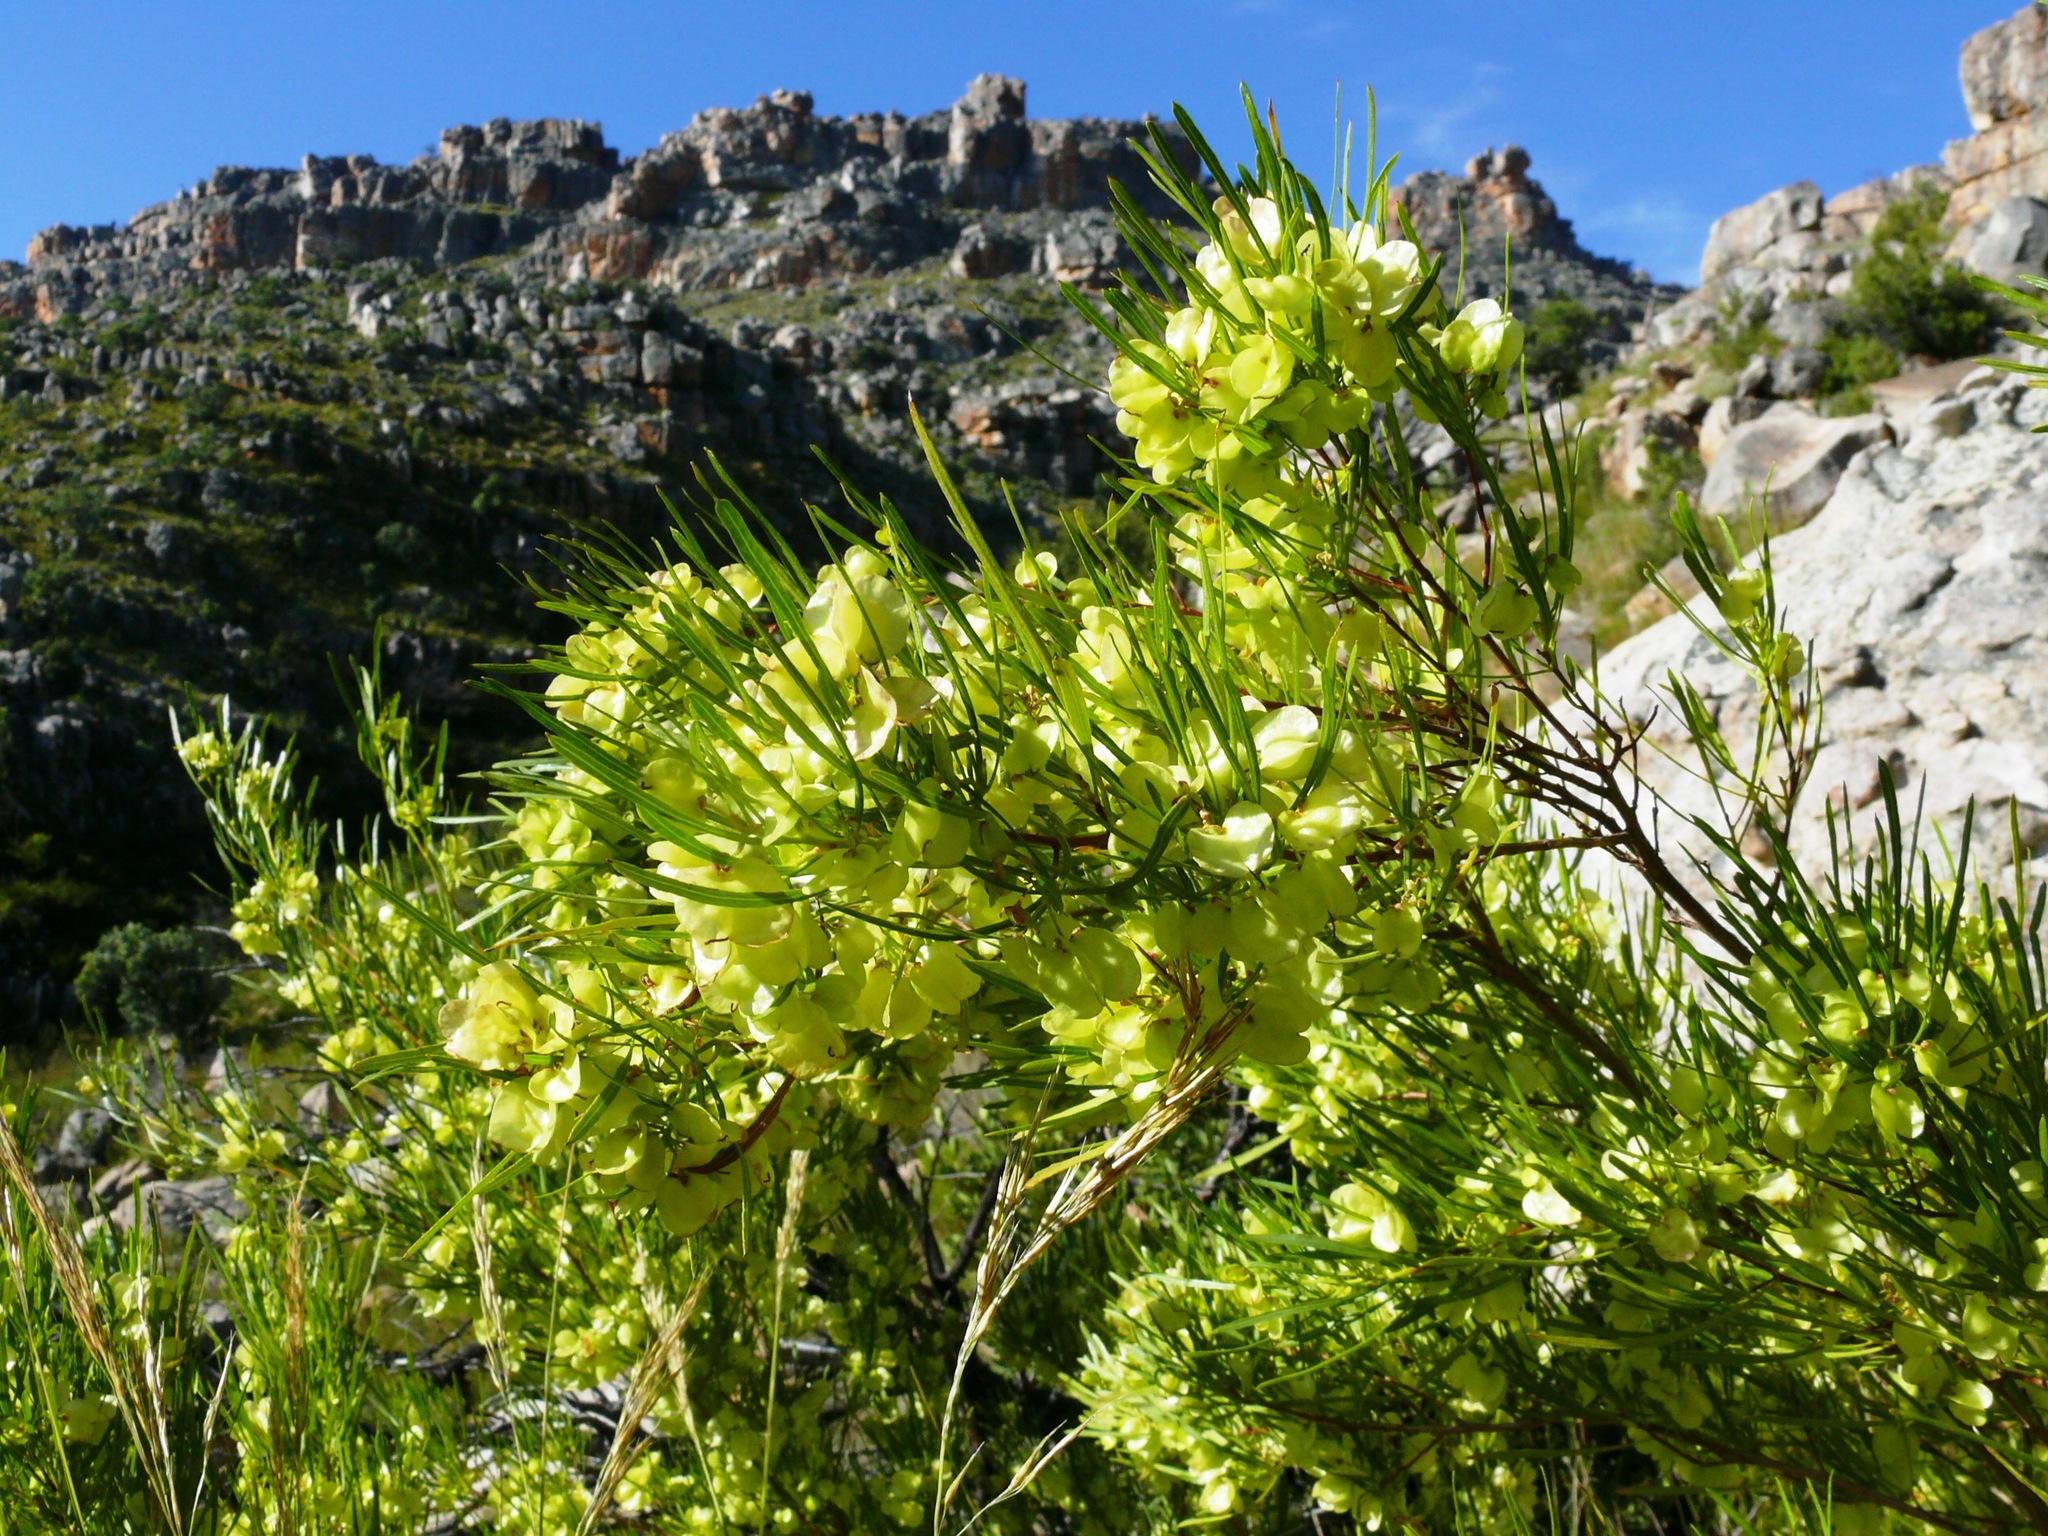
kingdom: Plantae
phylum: Tracheophyta
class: Magnoliopsida
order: Sapindales
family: Sapindaceae
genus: Dodonaea
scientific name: Dodonaea viscosa
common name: Hopbush
